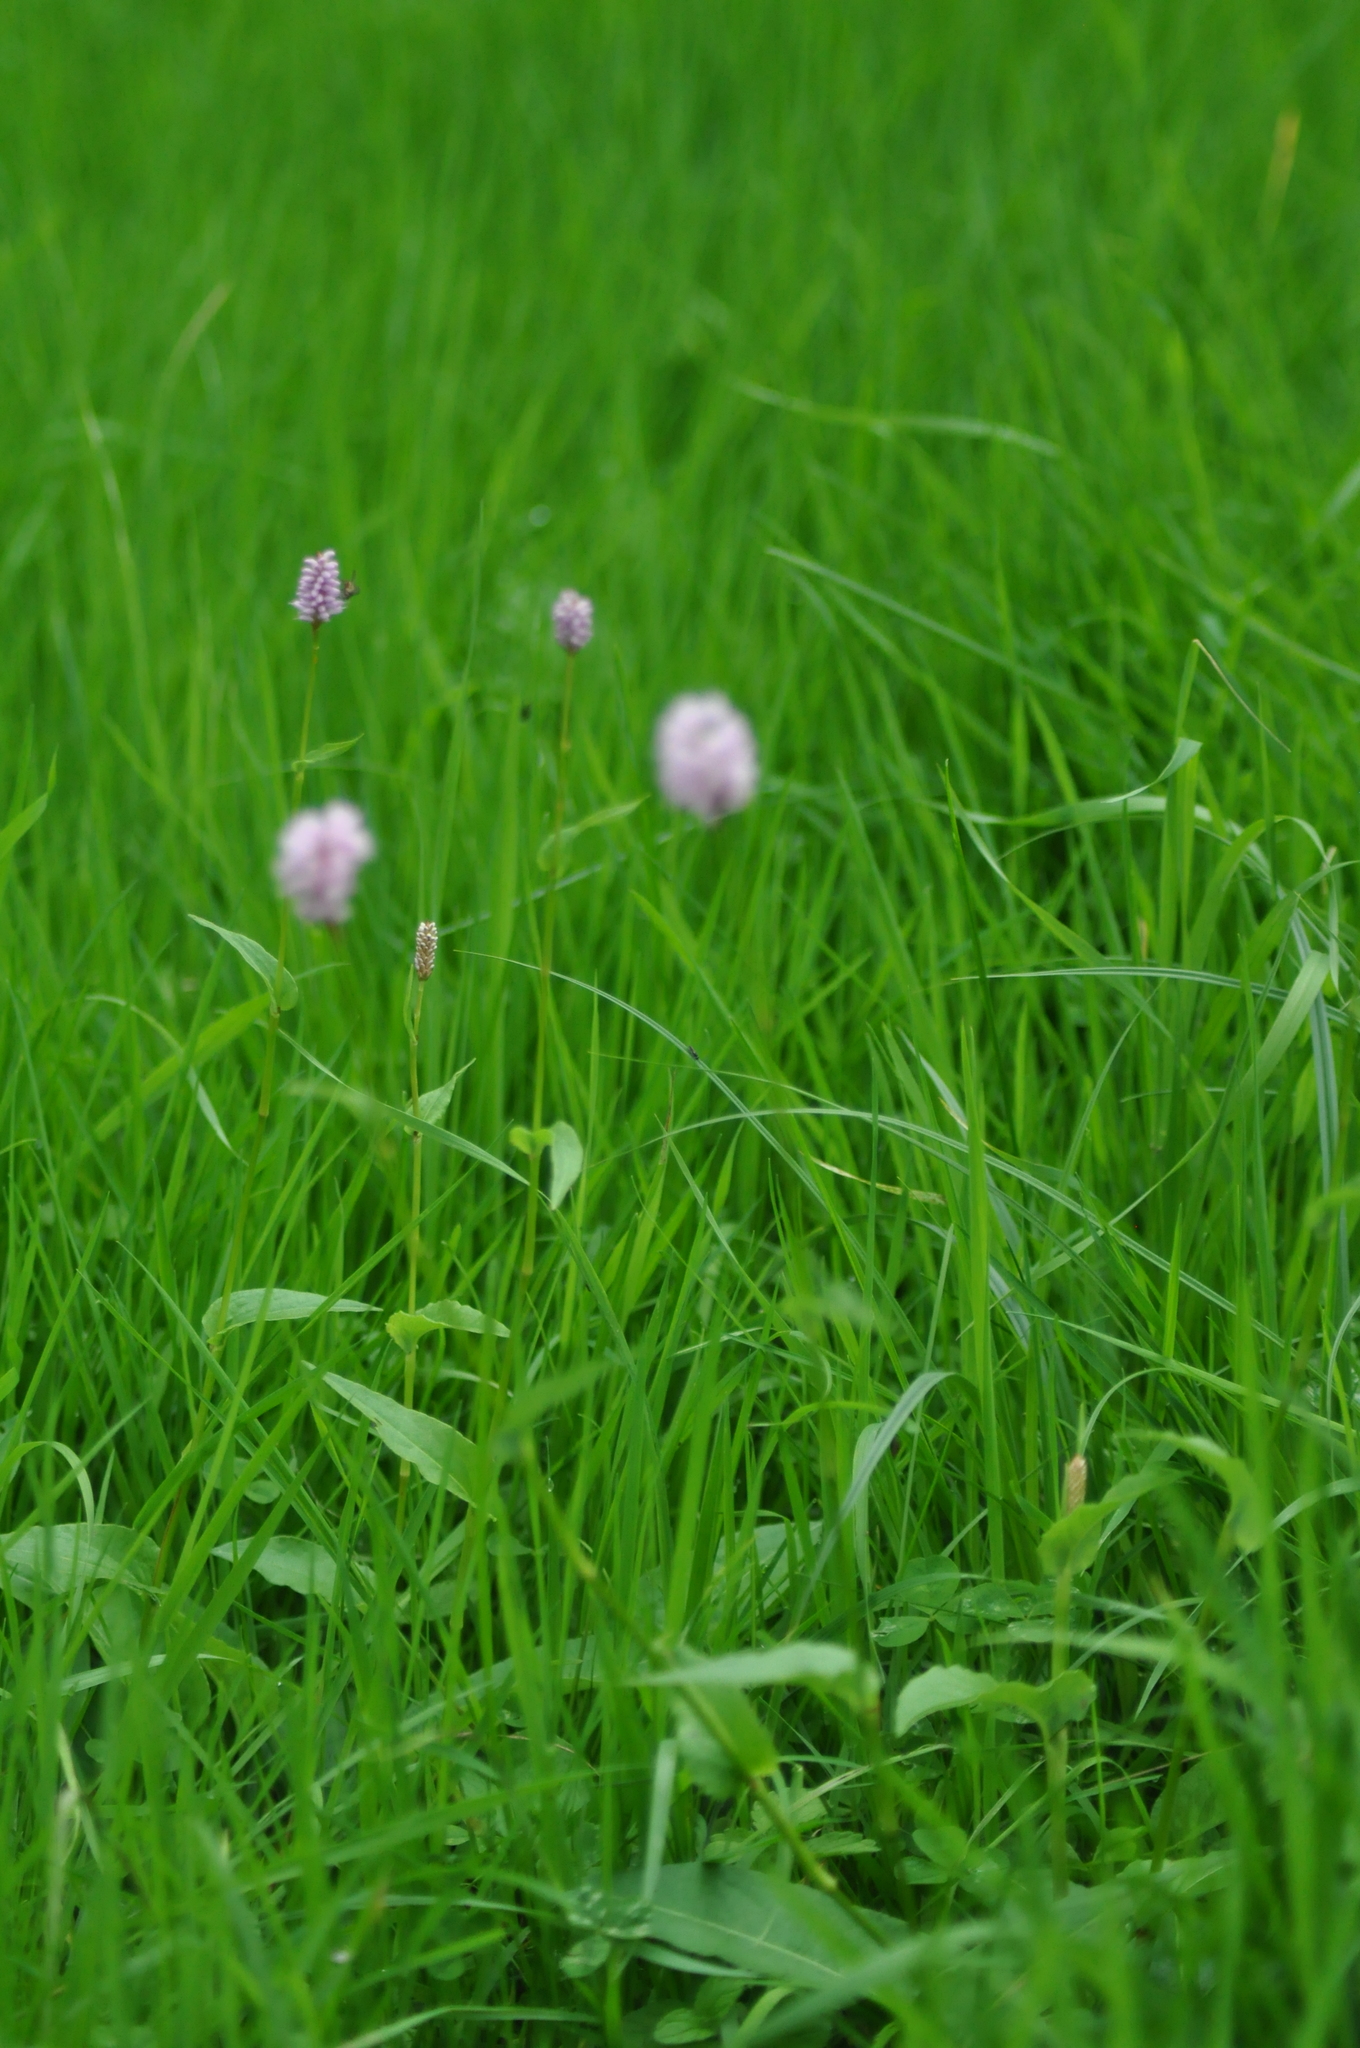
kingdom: Plantae
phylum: Tracheophyta
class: Magnoliopsida
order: Caryophyllales
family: Polygonaceae
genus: Bistorta
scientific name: Bistorta officinalis
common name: Common bistort
